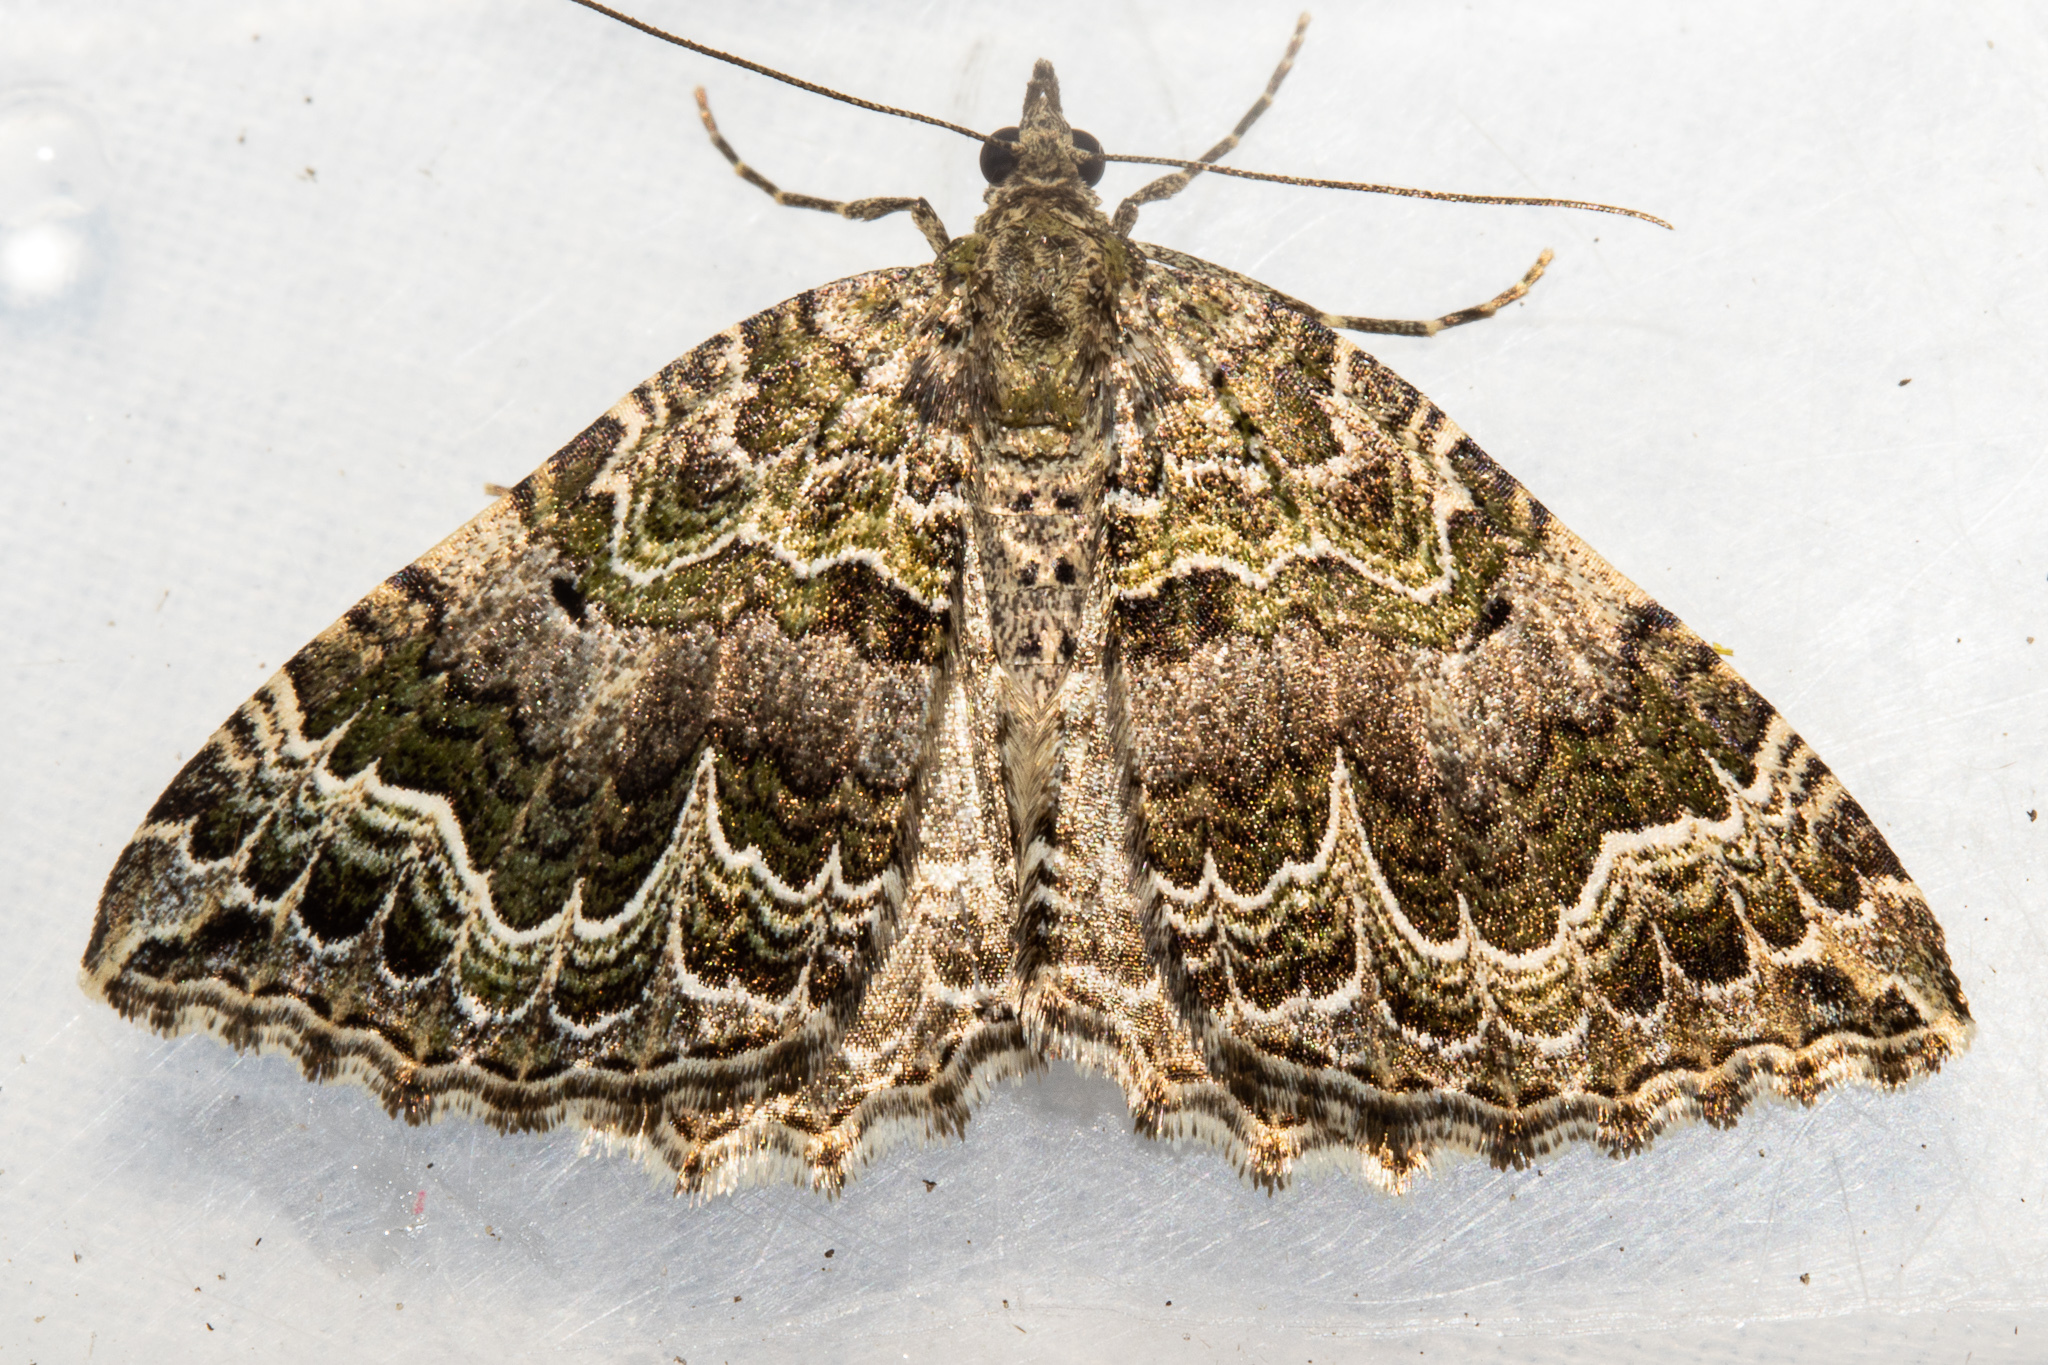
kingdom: Animalia
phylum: Arthropoda
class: Insecta
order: Lepidoptera
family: Geometridae
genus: Hydriomena
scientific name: Hydriomena rixata
